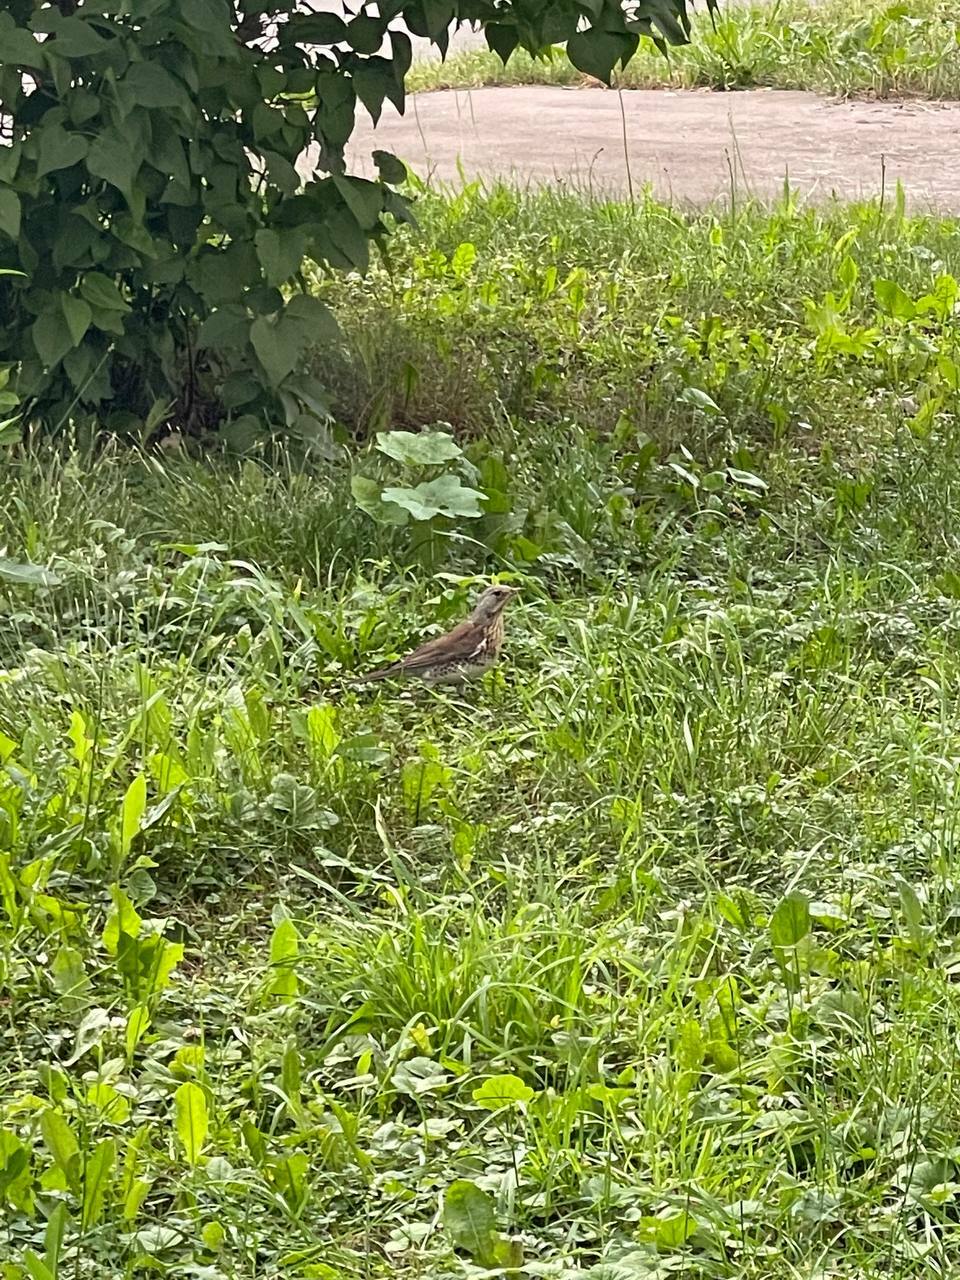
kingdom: Animalia
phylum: Chordata
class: Aves
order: Passeriformes
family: Turdidae
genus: Turdus
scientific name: Turdus pilaris
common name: Fieldfare
